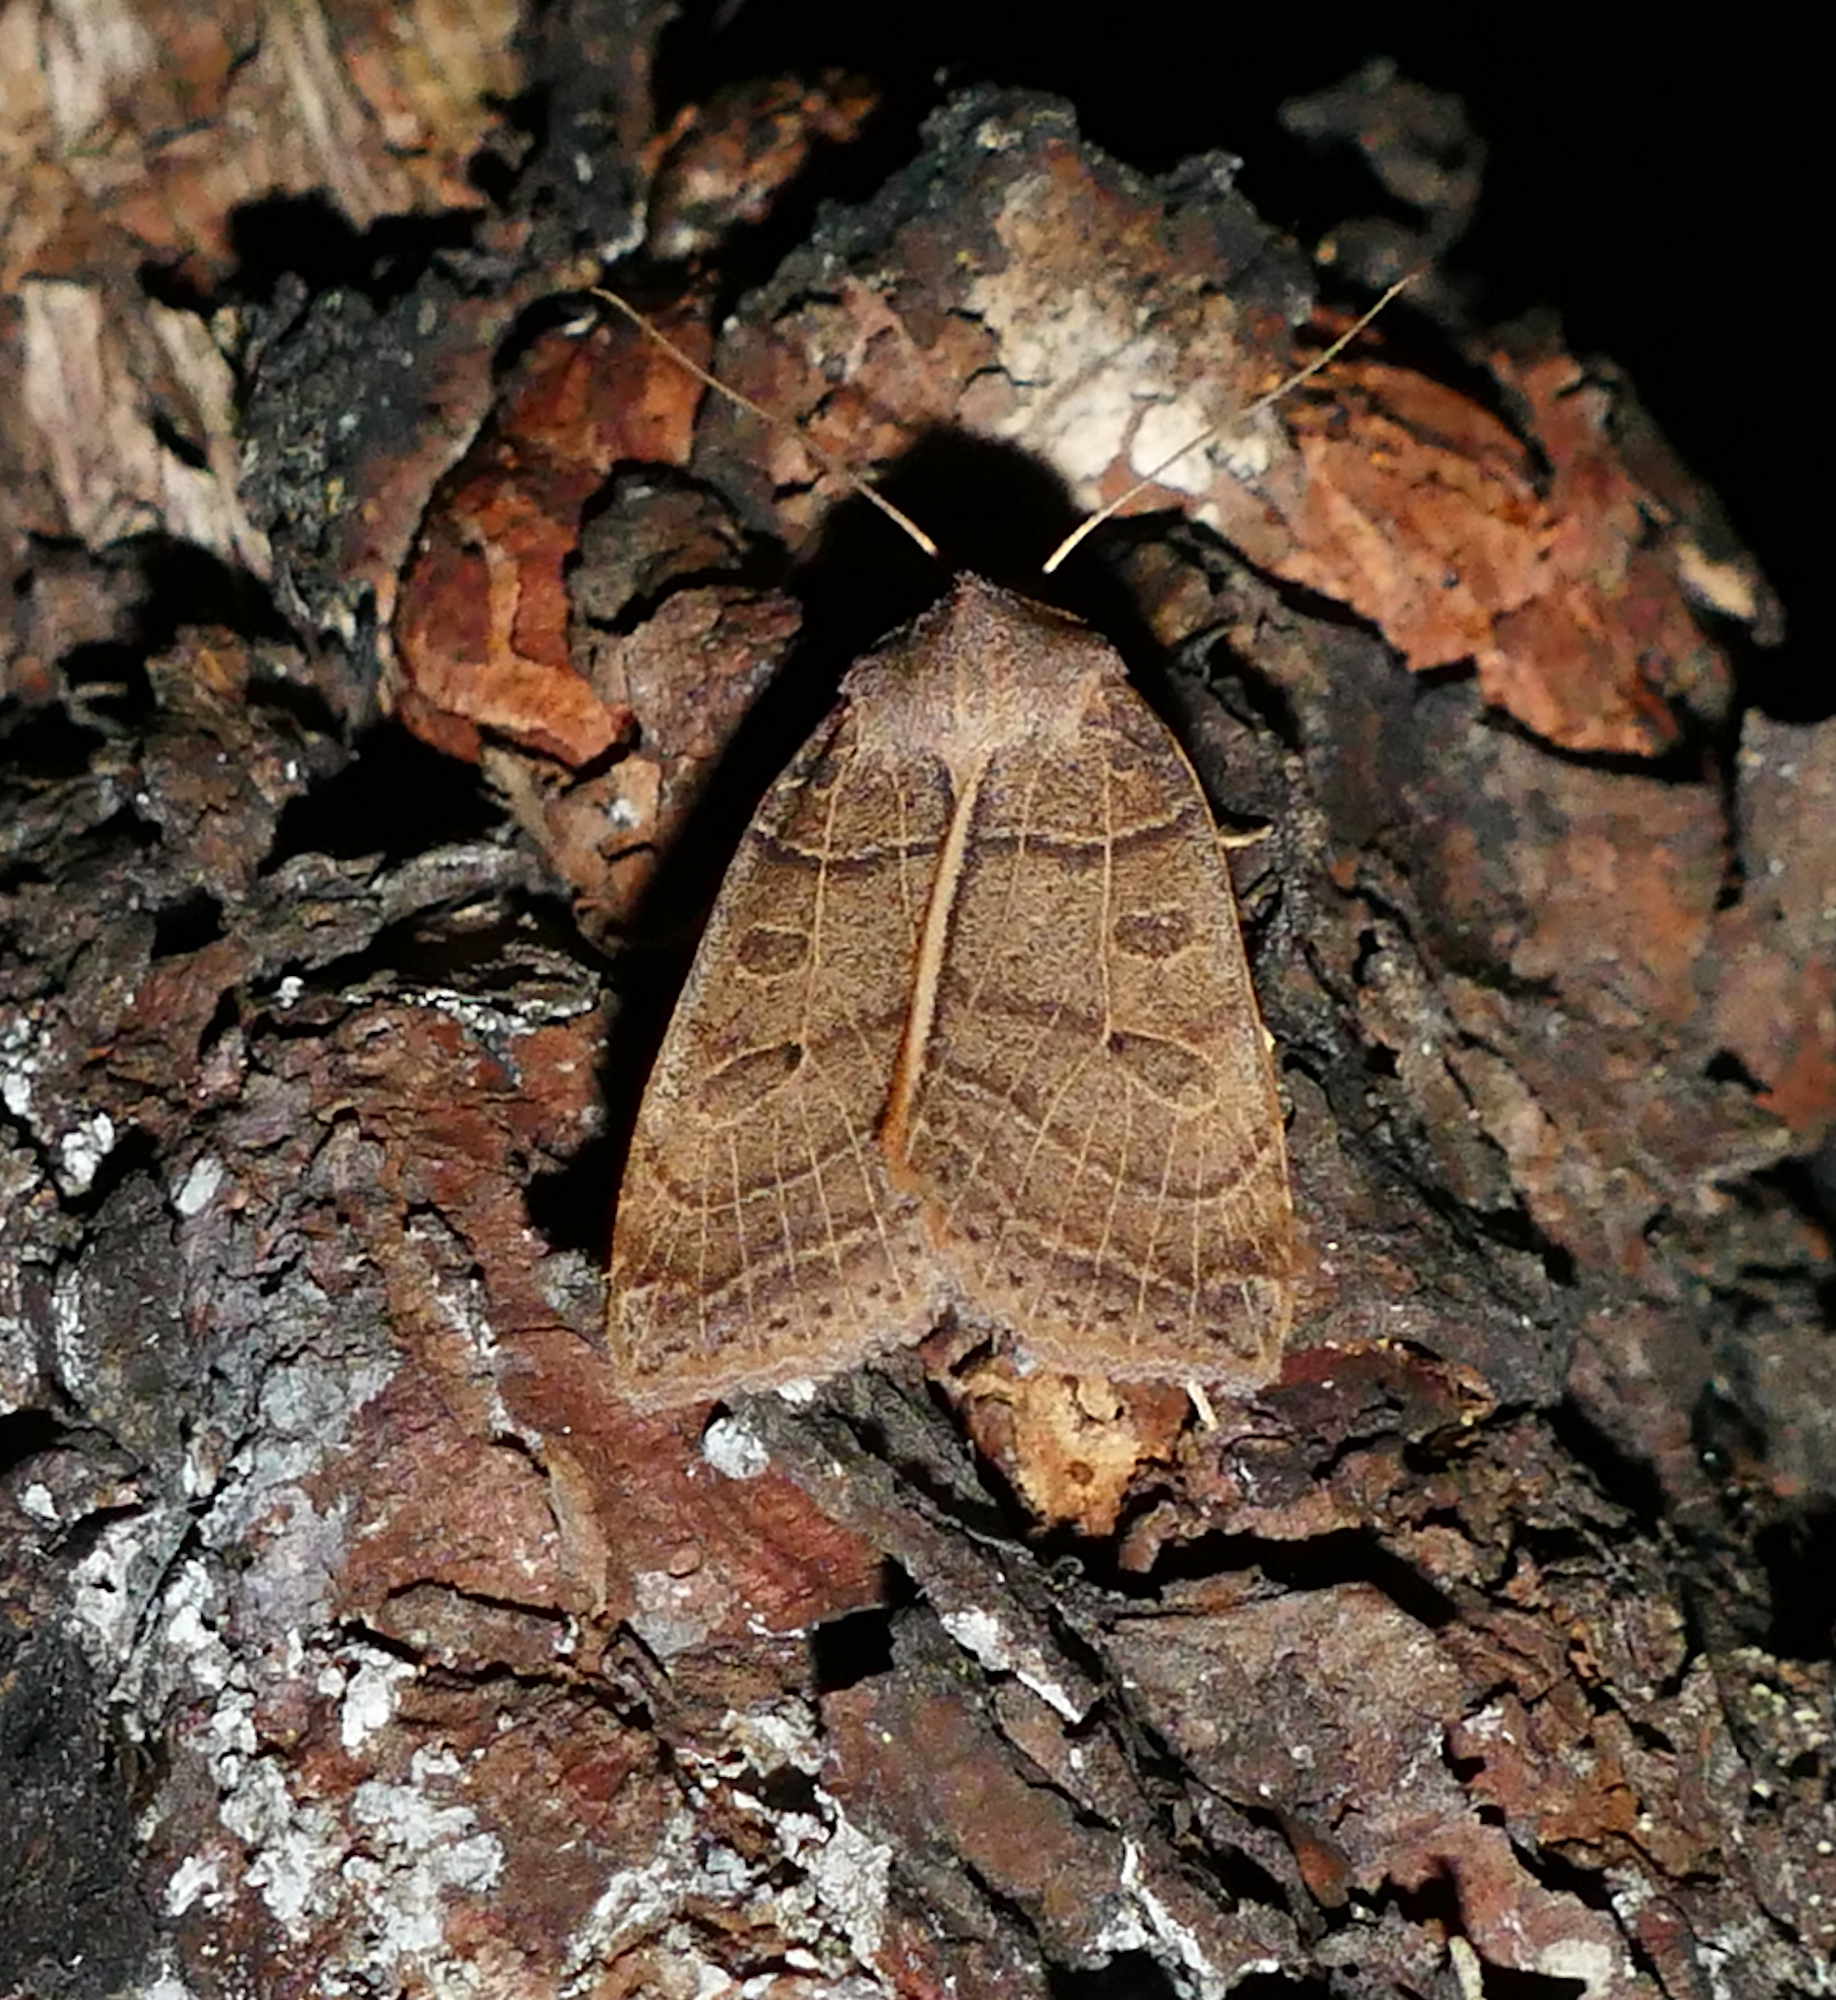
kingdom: Animalia
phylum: Arthropoda
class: Insecta
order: Lepidoptera
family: Noctuidae
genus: Chaetaglaea
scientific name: Chaetaglaea sericea
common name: Silky sallow
